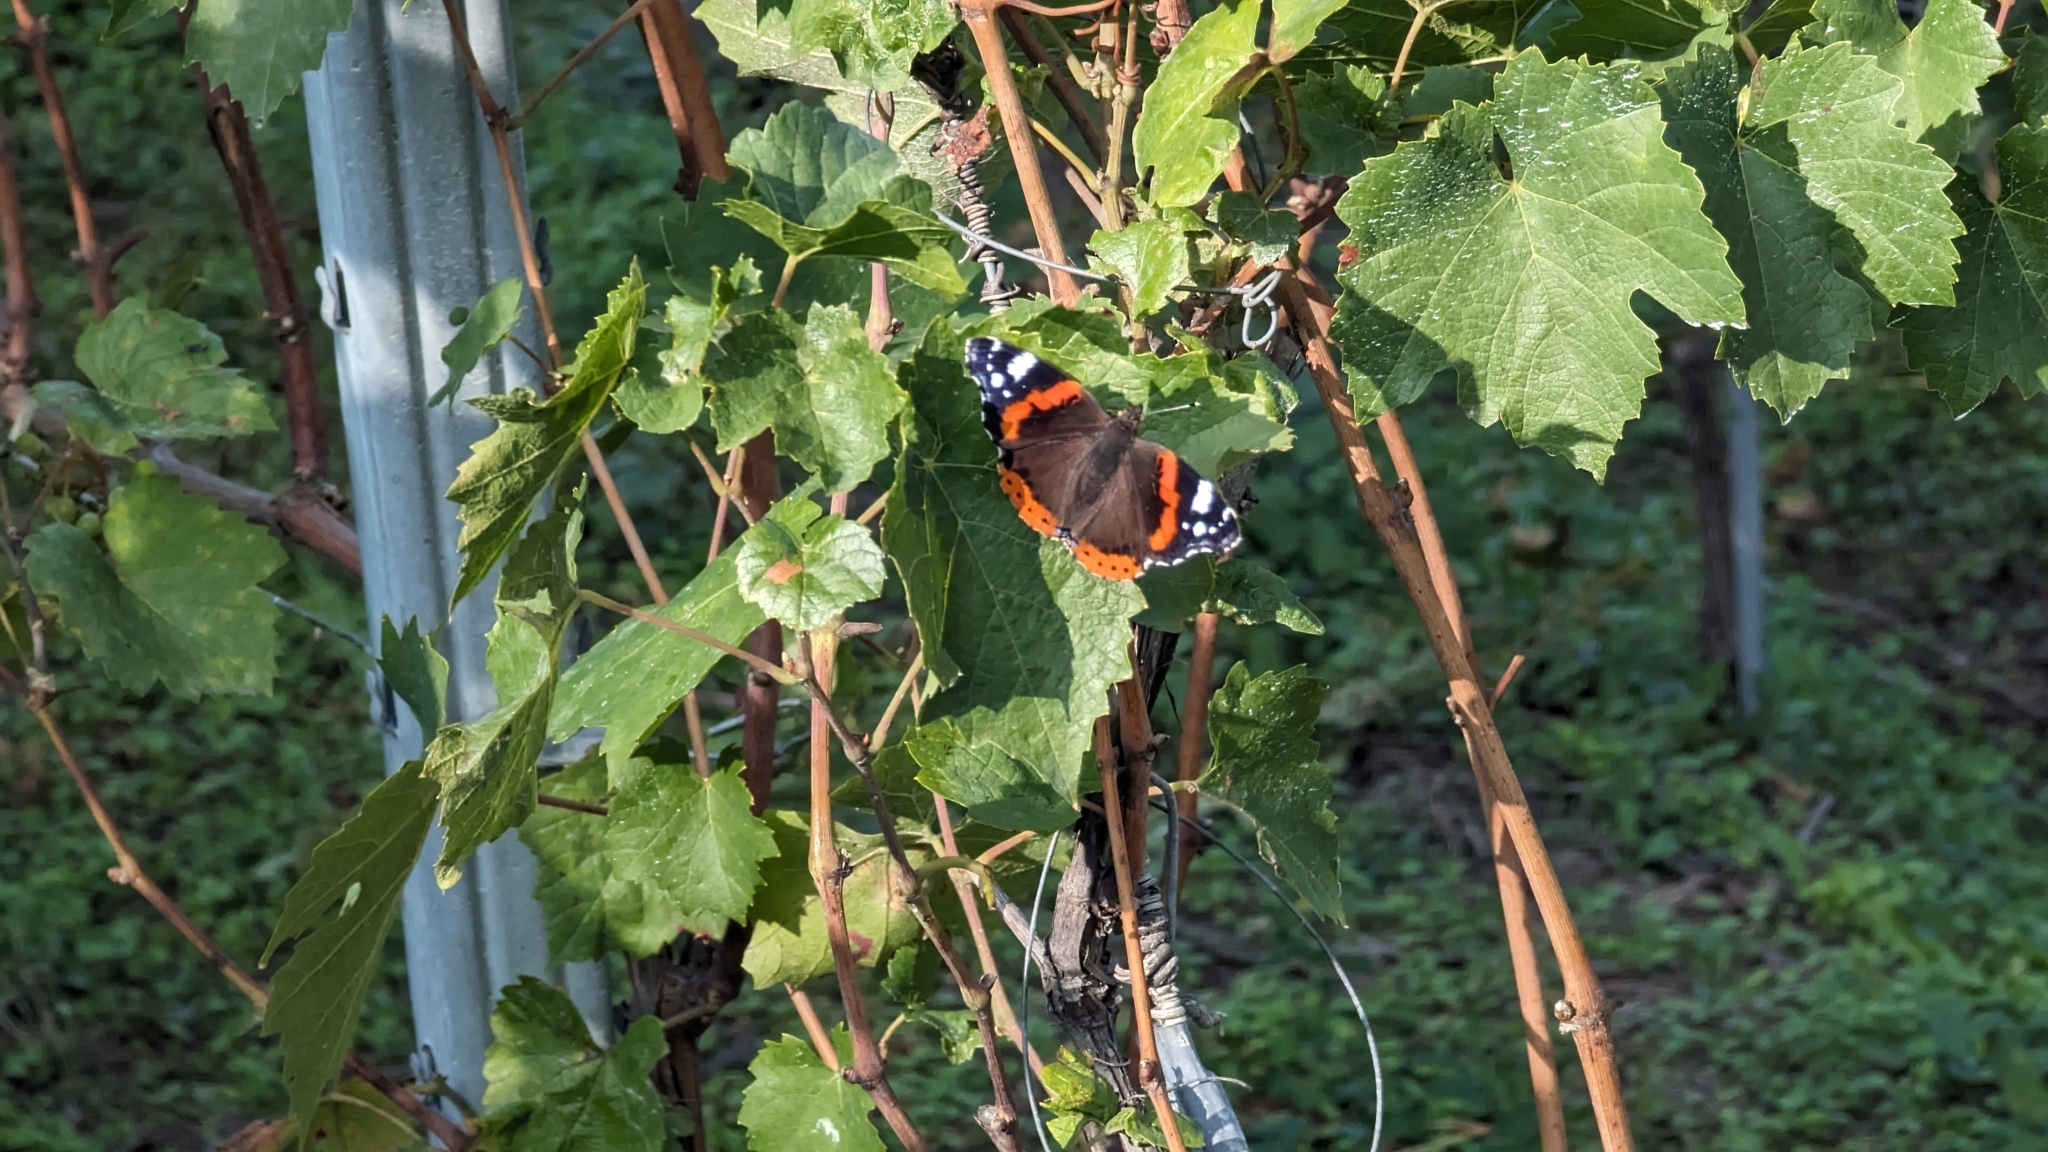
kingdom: Animalia
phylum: Arthropoda
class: Insecta
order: Lepidoptera
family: Nymphalidae
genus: Vanessa
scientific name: Vanessa atalanta
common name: Red admiral
